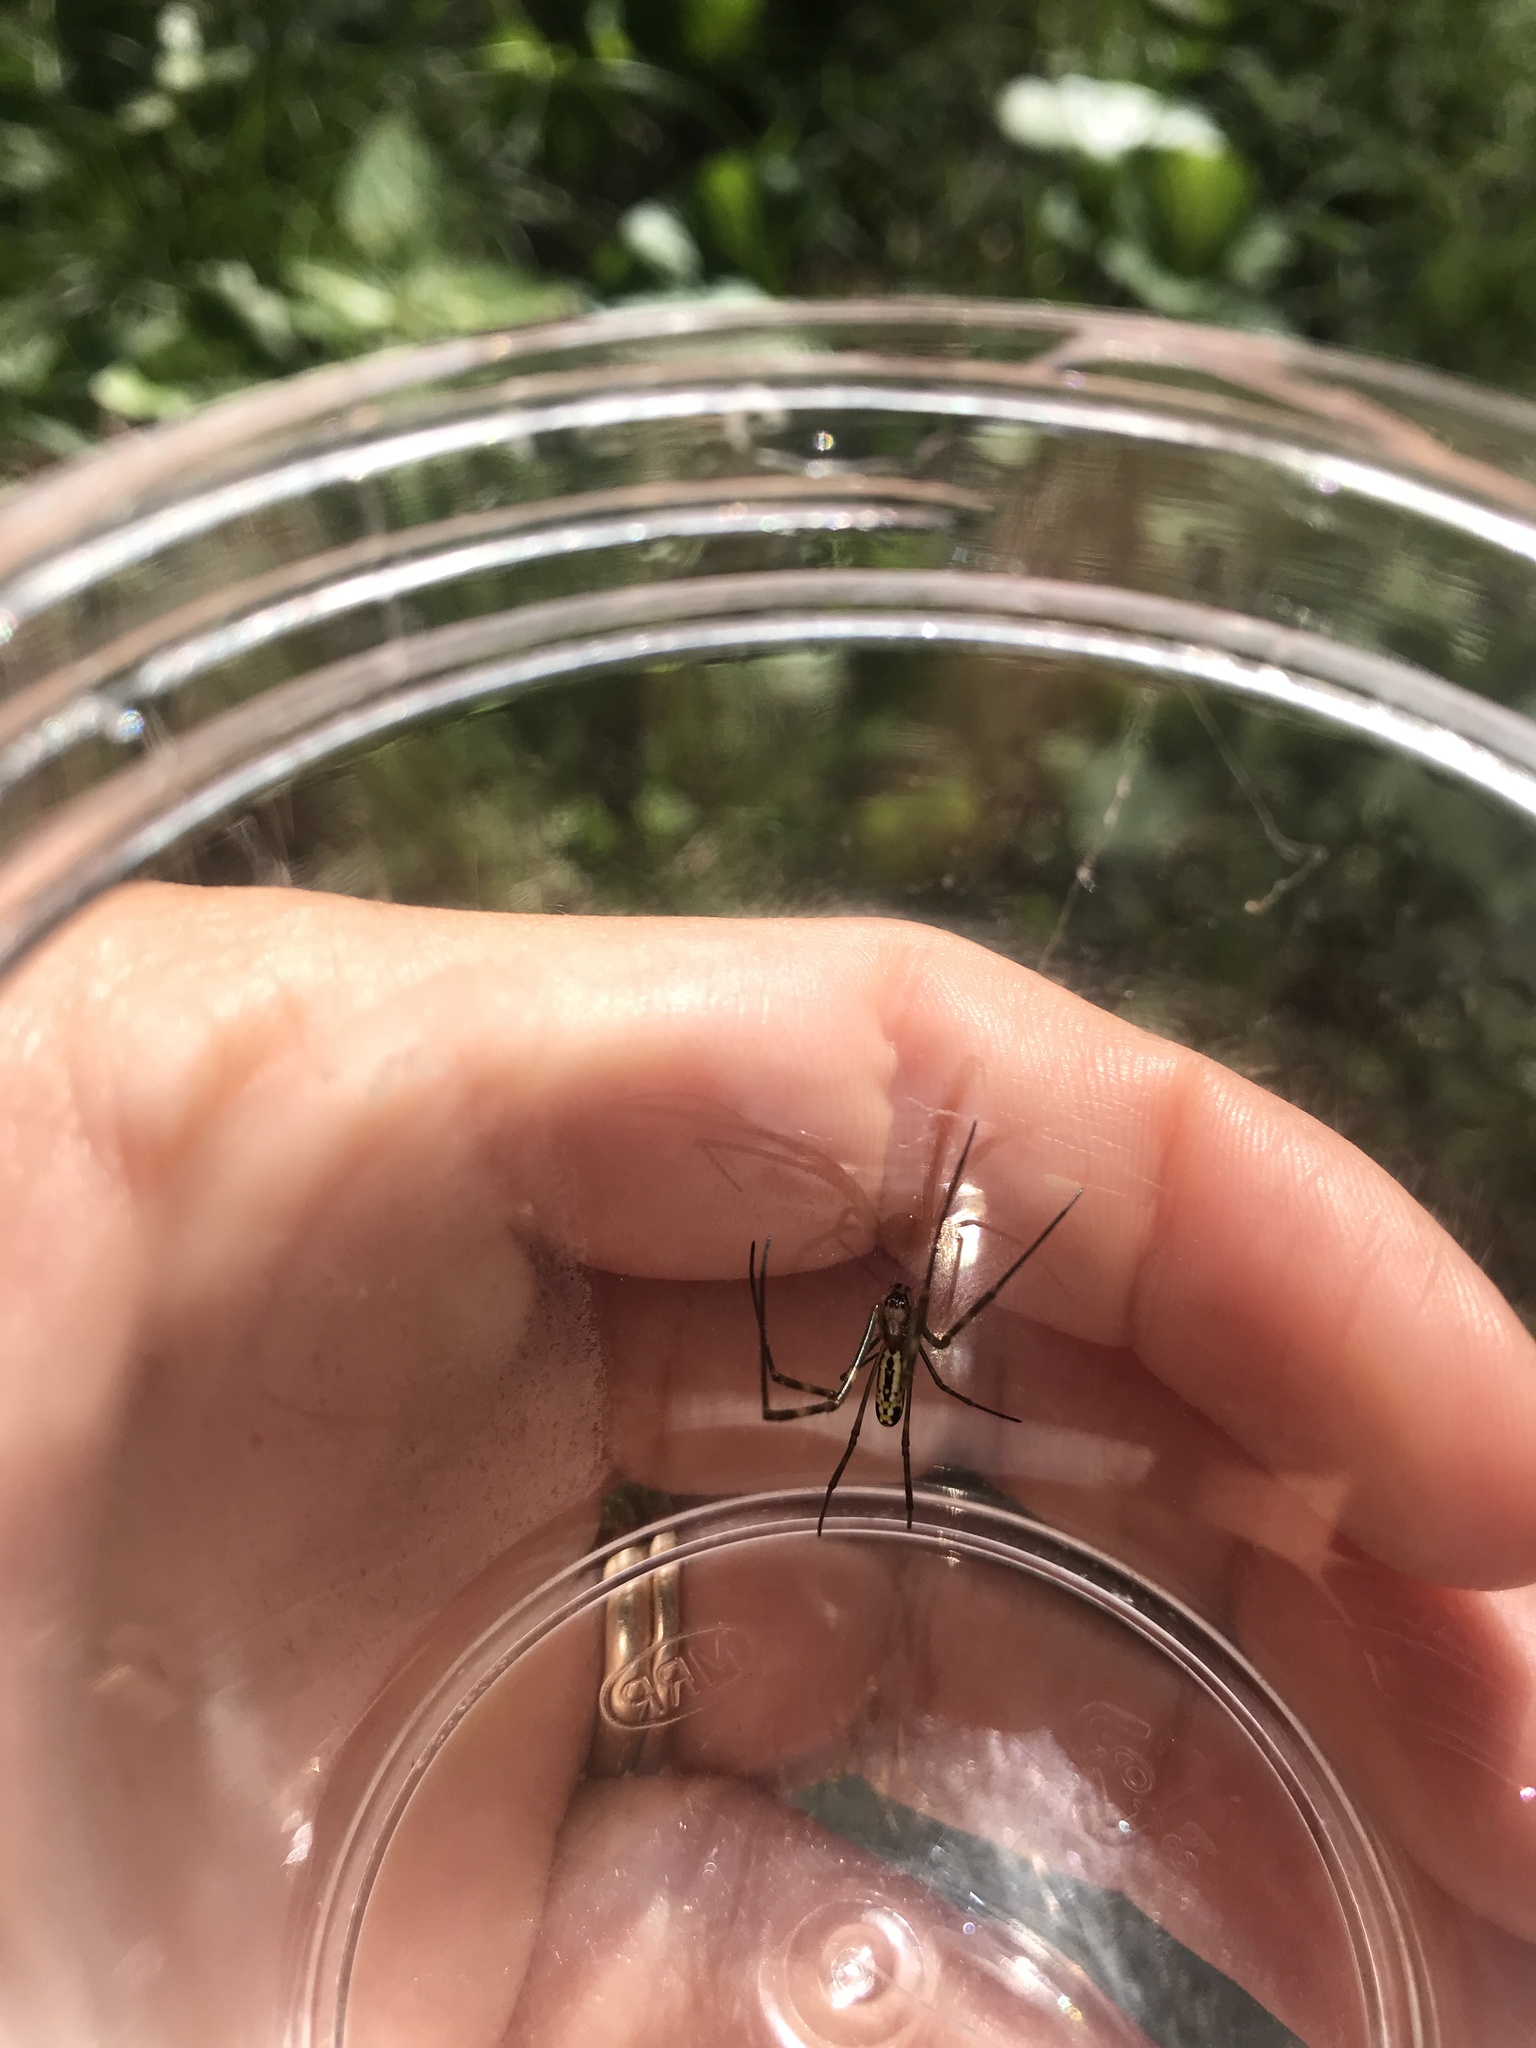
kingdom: Animalia
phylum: Arthropoda
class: Arachnida
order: Araneae
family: Araneidae
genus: Trichonephila
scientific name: Trichonephila clavata
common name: Jorō spider
